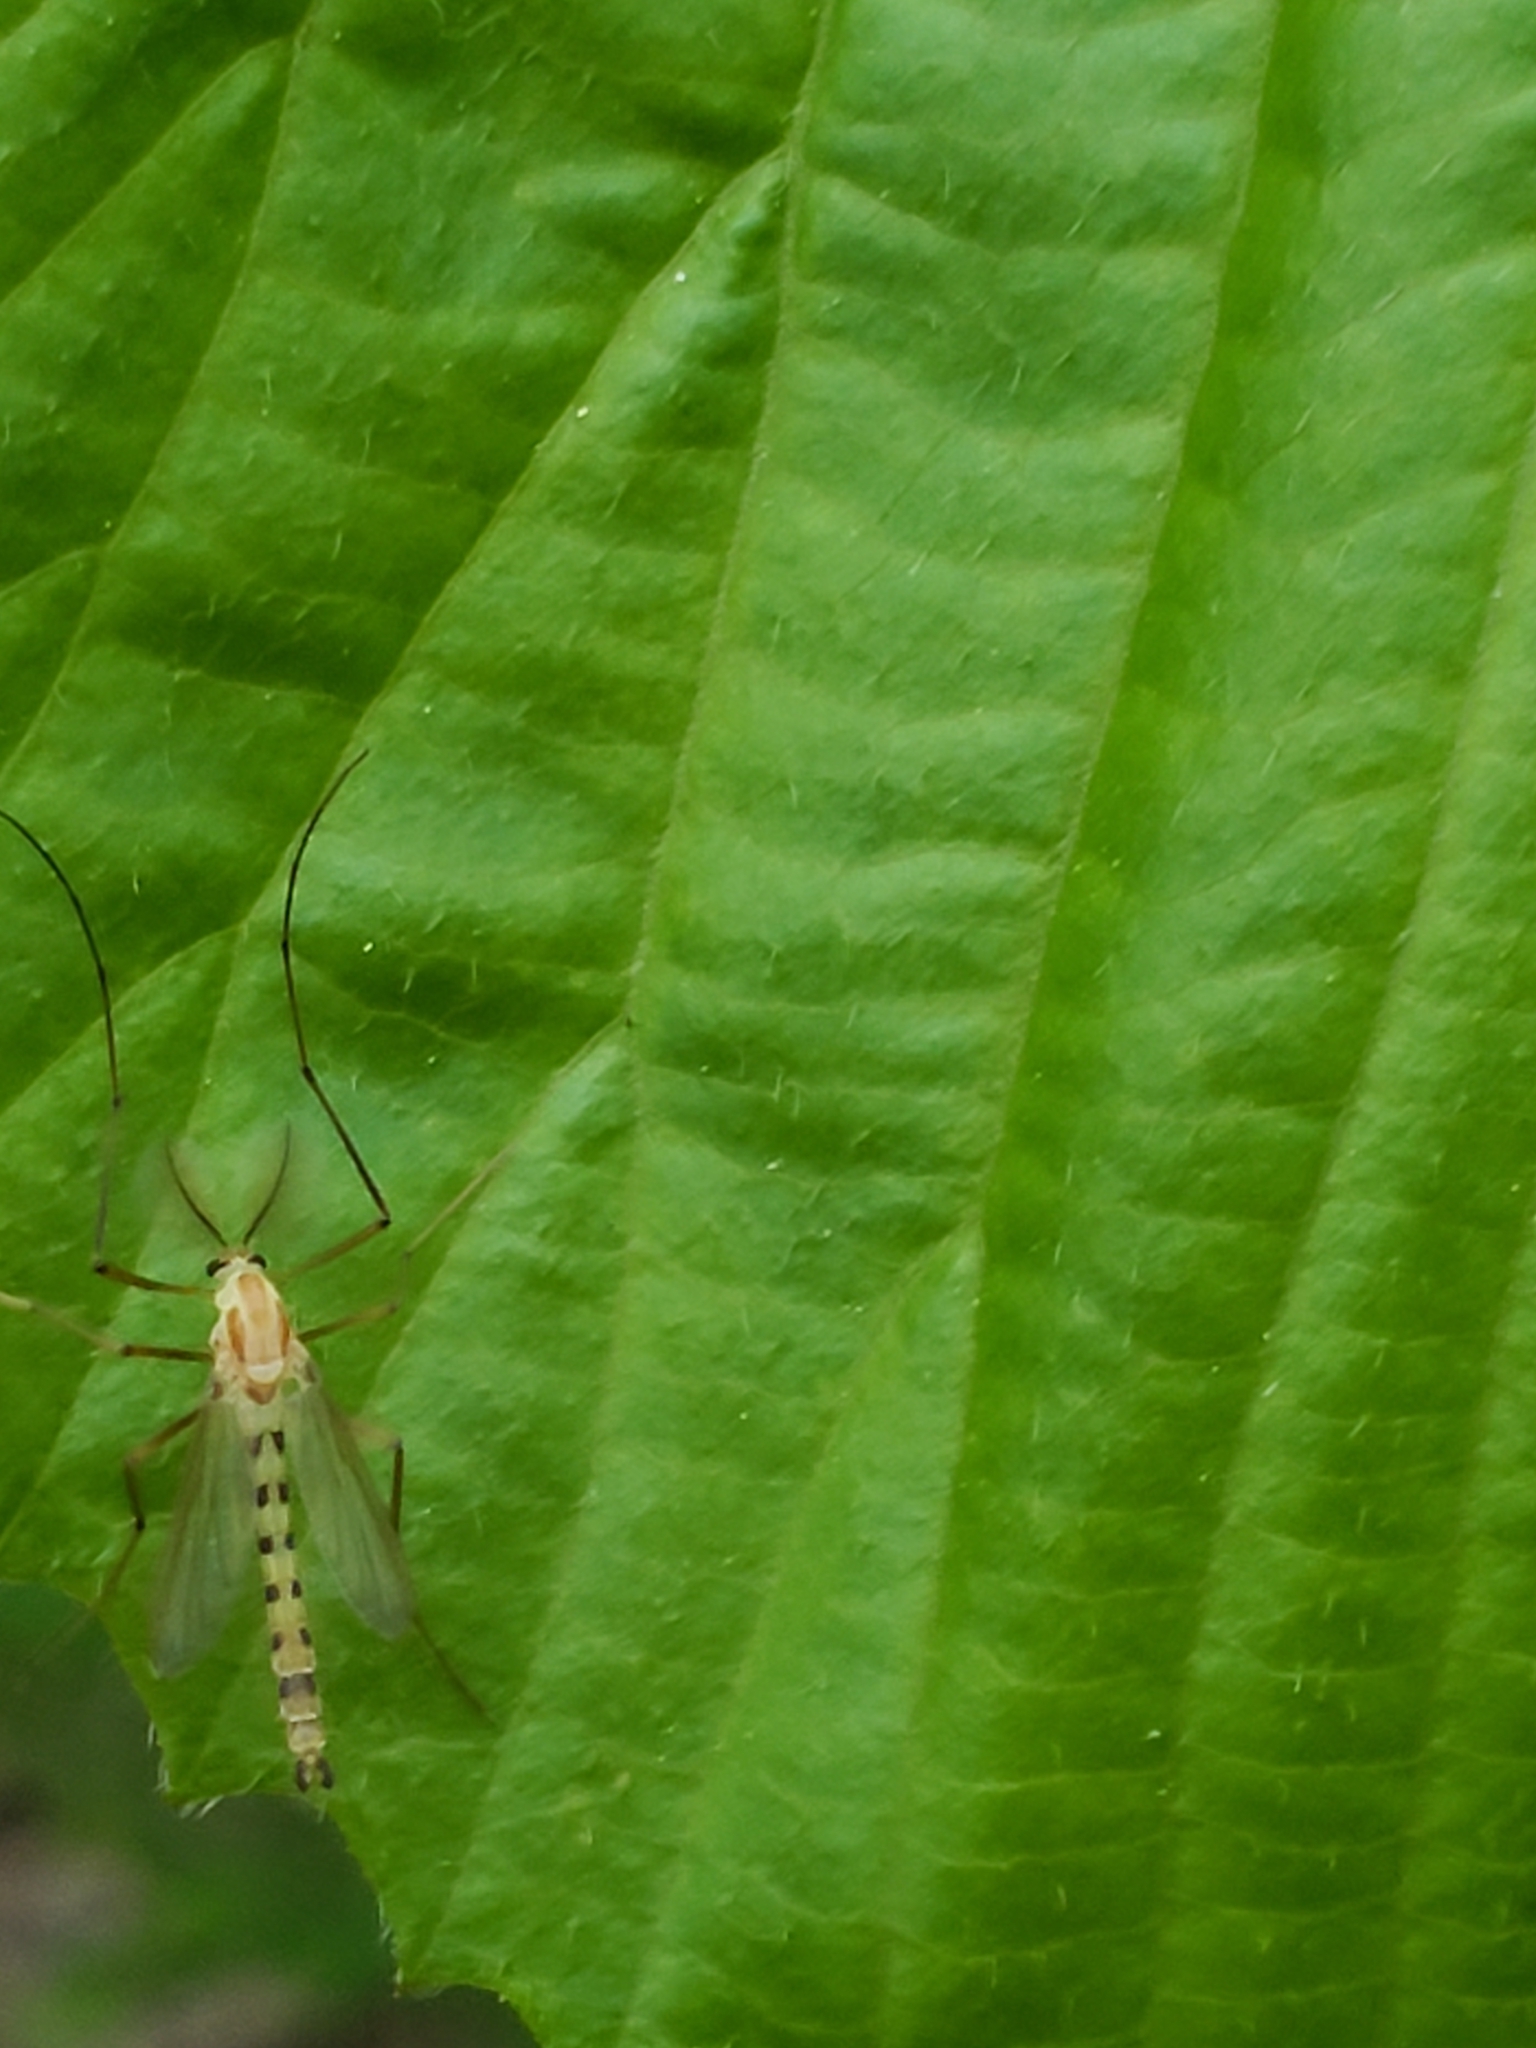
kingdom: Animalia
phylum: Arthropoda
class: Insecta
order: Diptera
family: Chironomidae
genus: Xylotopus
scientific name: Xylotopus par
